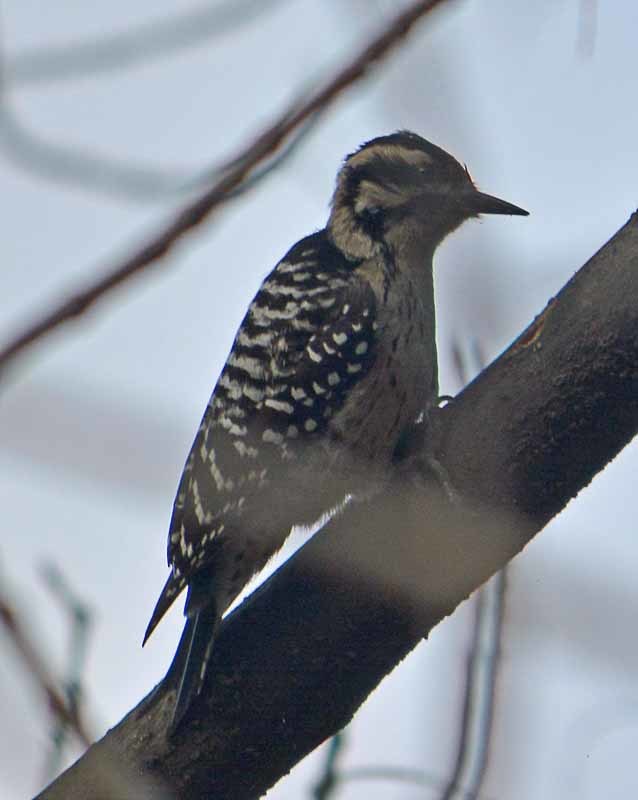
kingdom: Animalia
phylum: Chordata
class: Aves
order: Piciformes
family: Picidae
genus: Dryobates
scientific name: Dryobates scalaris
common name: Ladder-backed woodpecker
